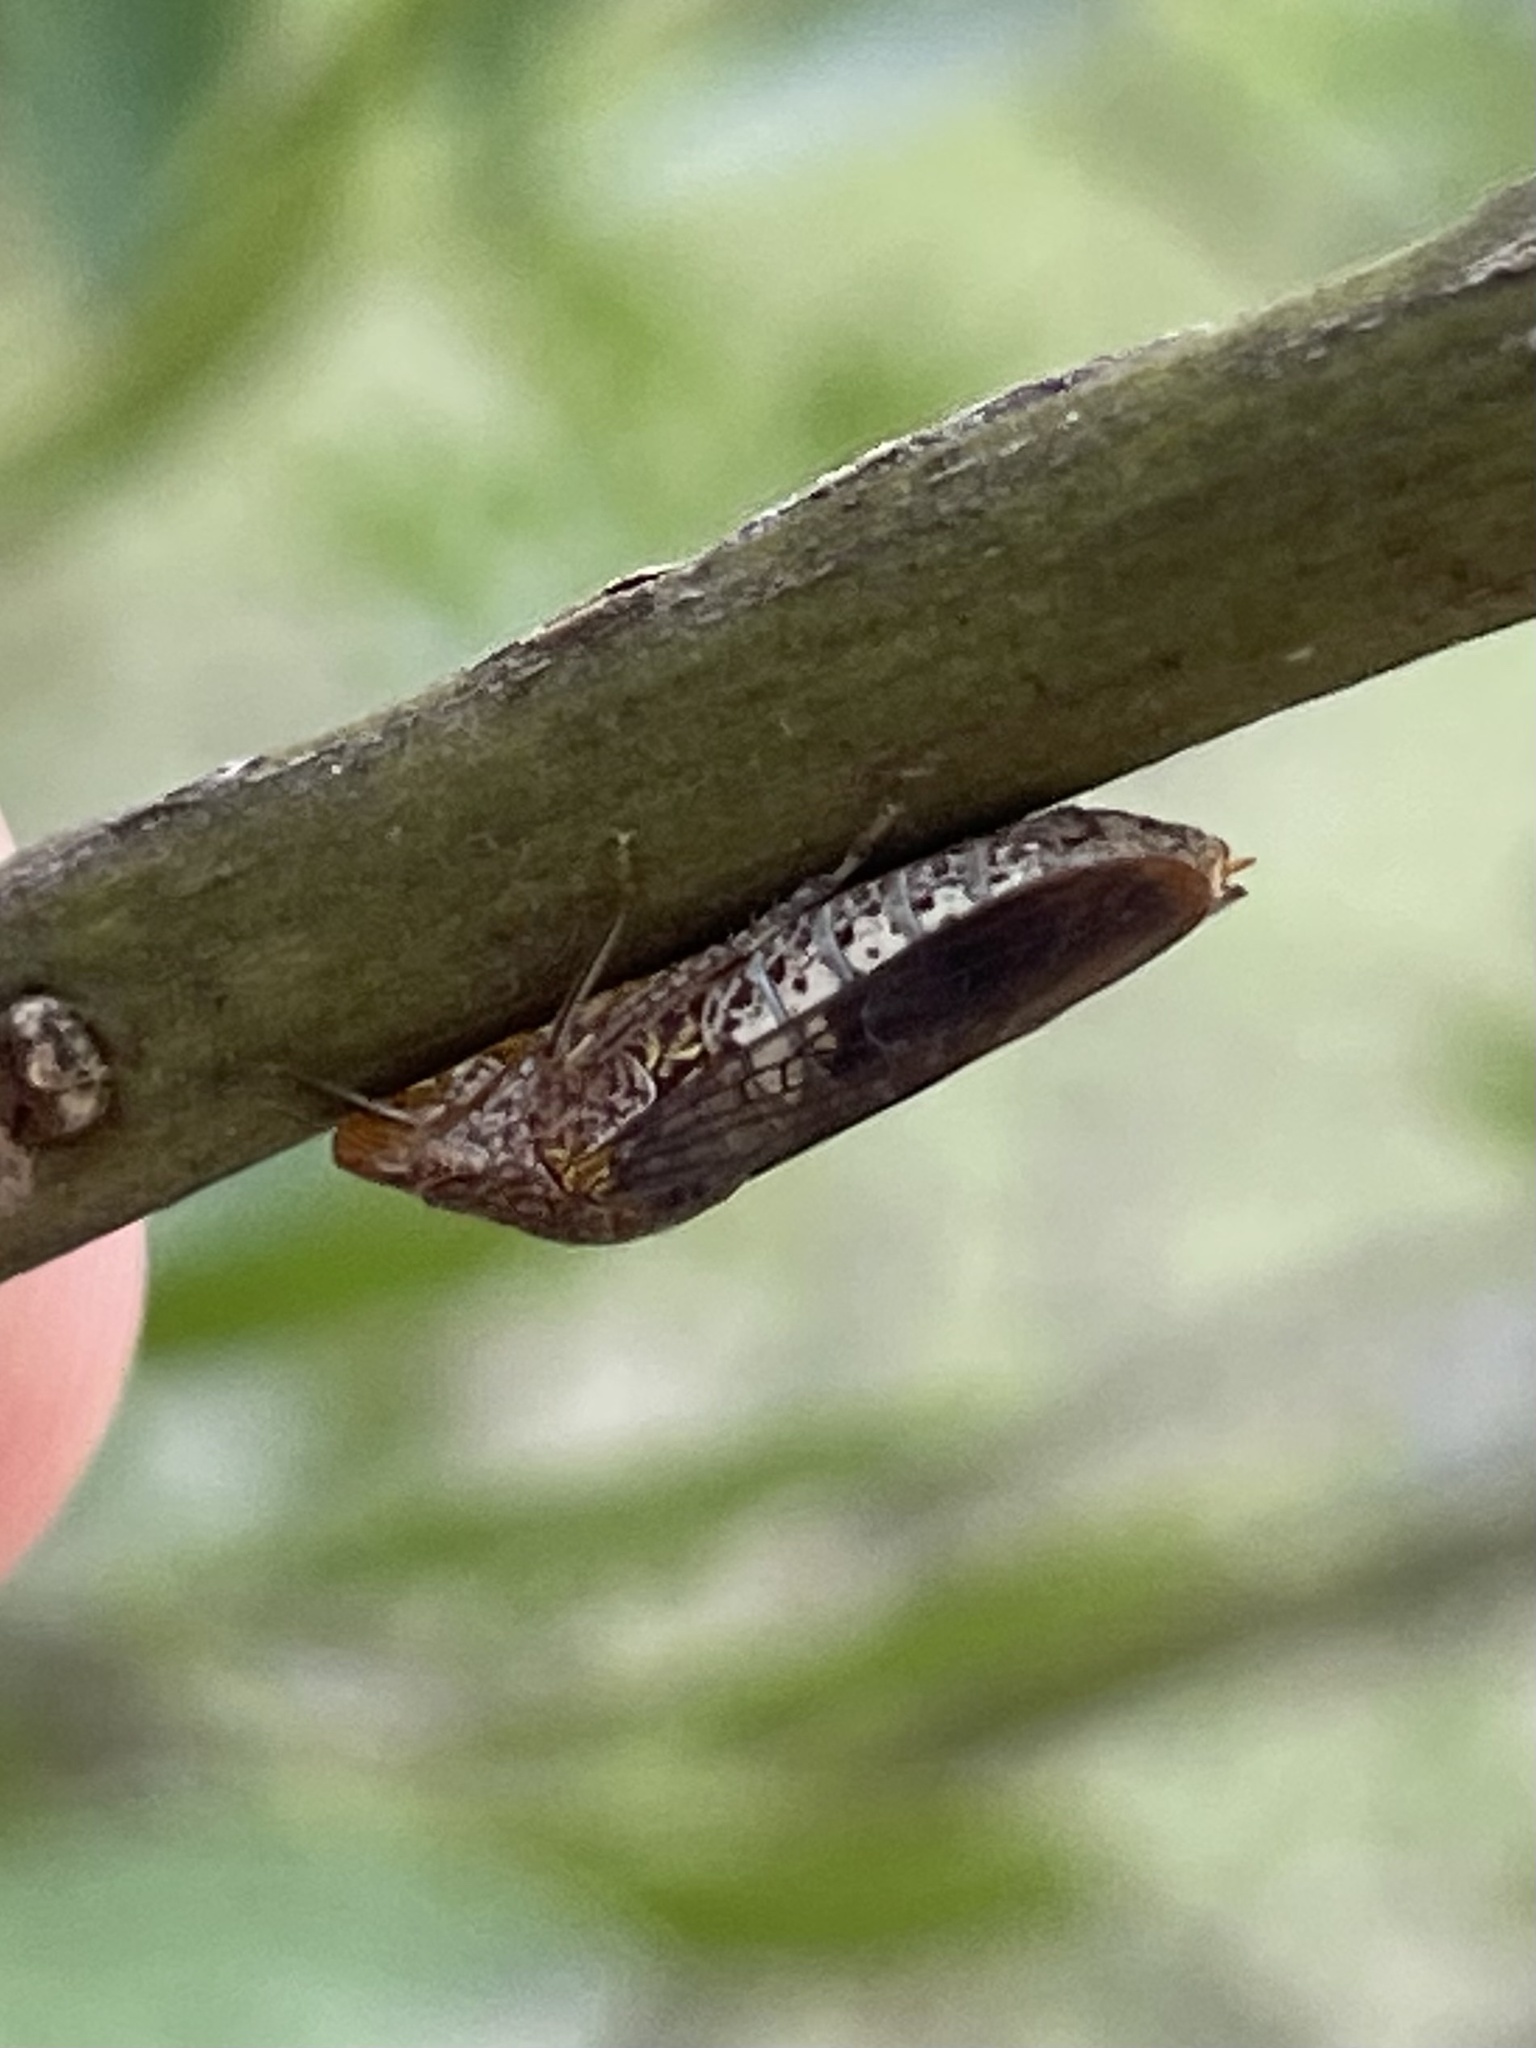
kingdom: Animalia
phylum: Arthropoda
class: Insecta
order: Hemiptera
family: Cicadellidae
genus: Homalodisca
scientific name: Homalodisca vitripennis
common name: Glassy-winged sharpshooter
